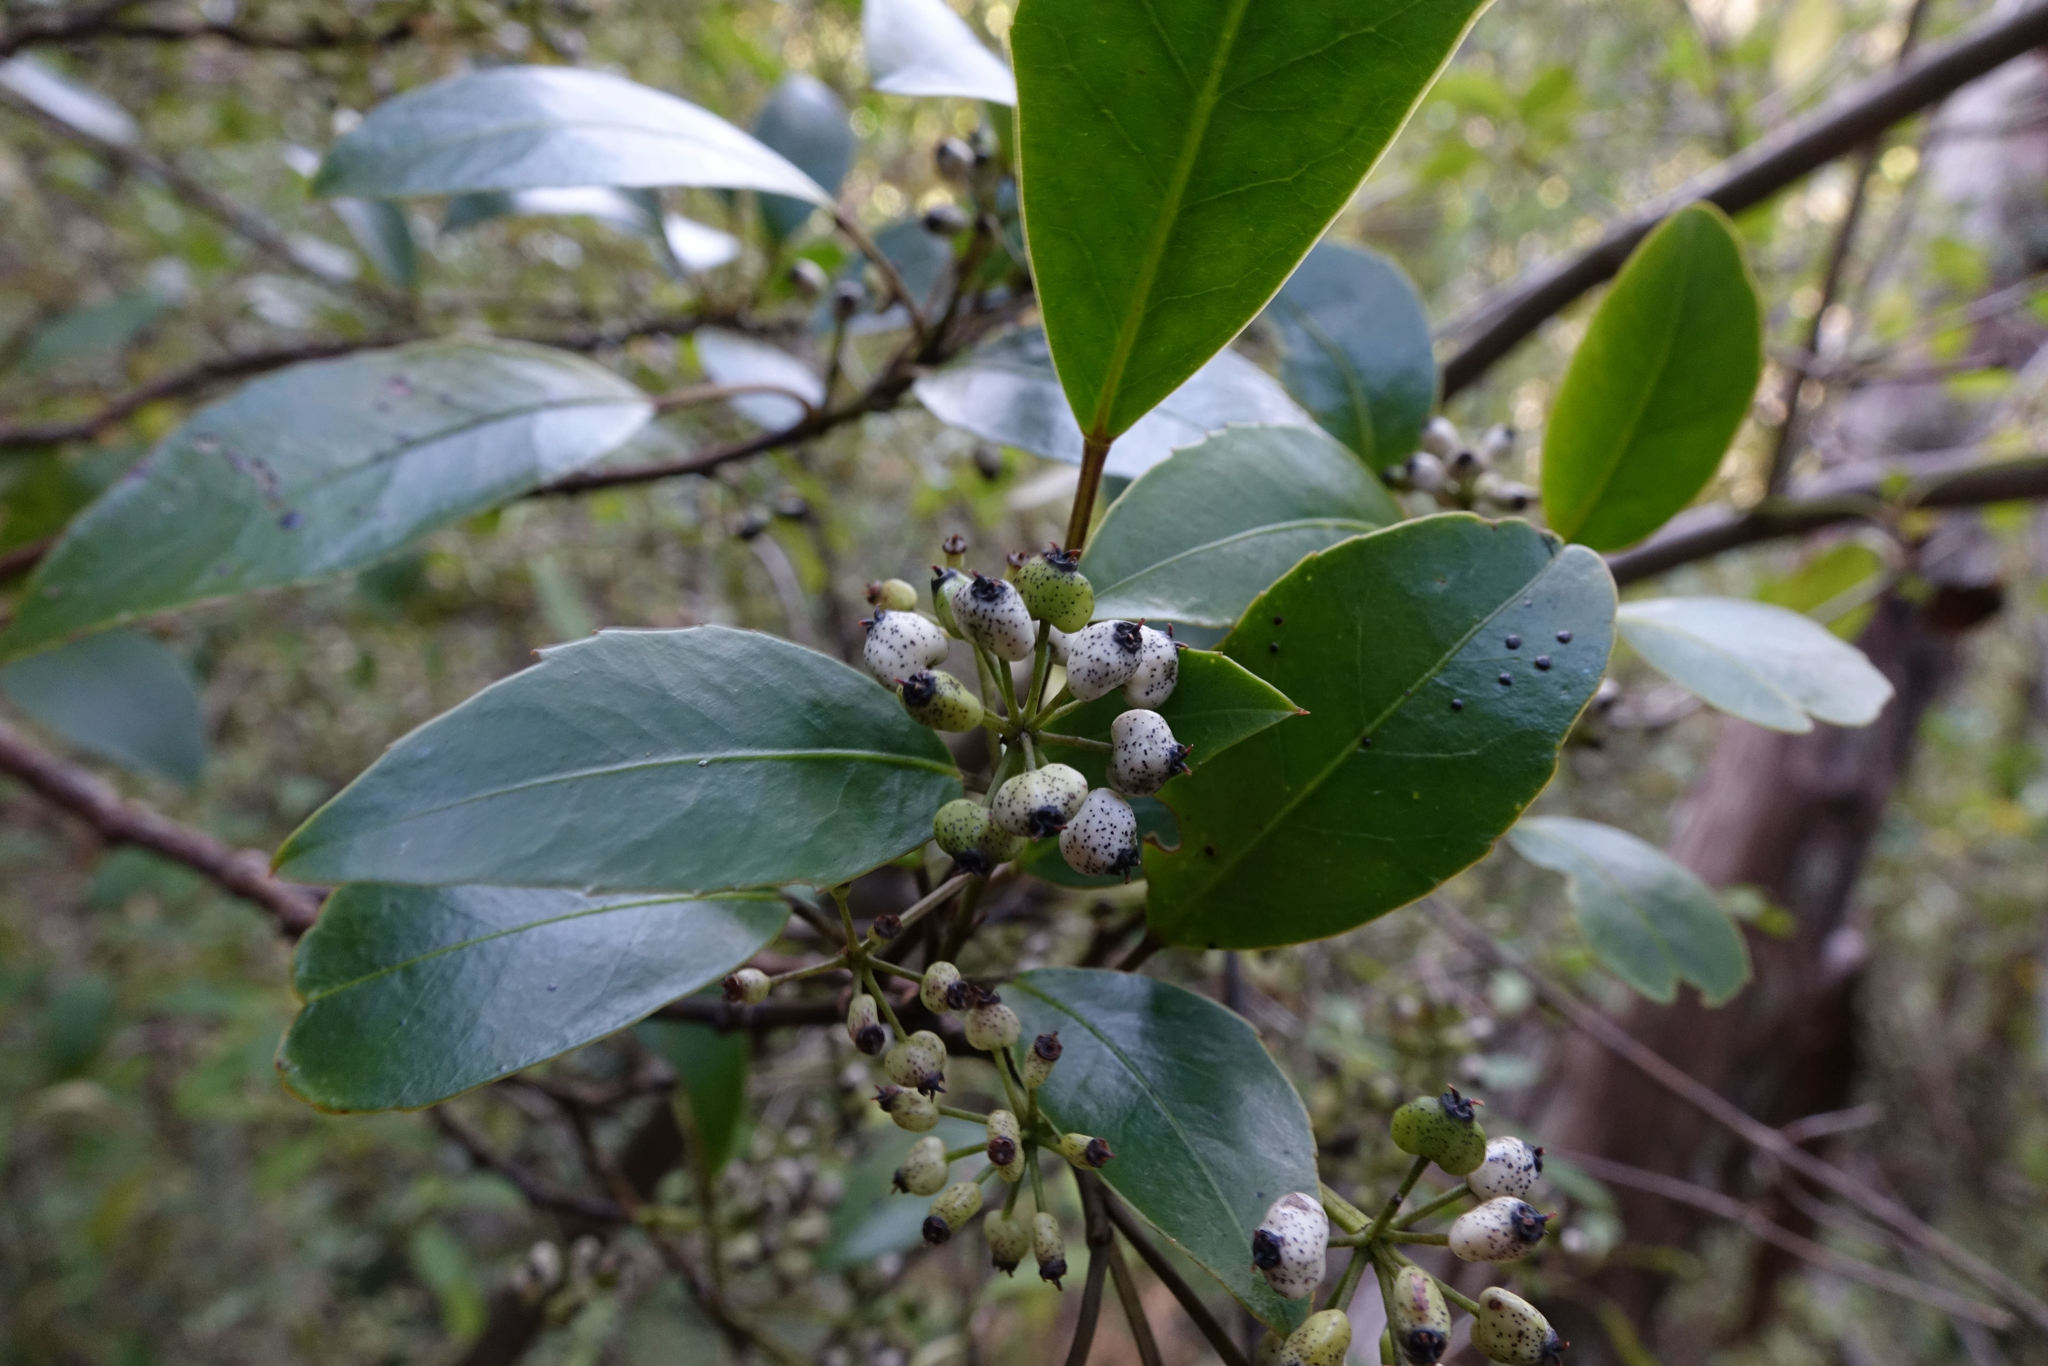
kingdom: Plantae
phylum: Tracheophyta
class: Magnoliopsida
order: Apiales
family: Araliaceae
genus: Raukaua
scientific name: Raukaua simplex
